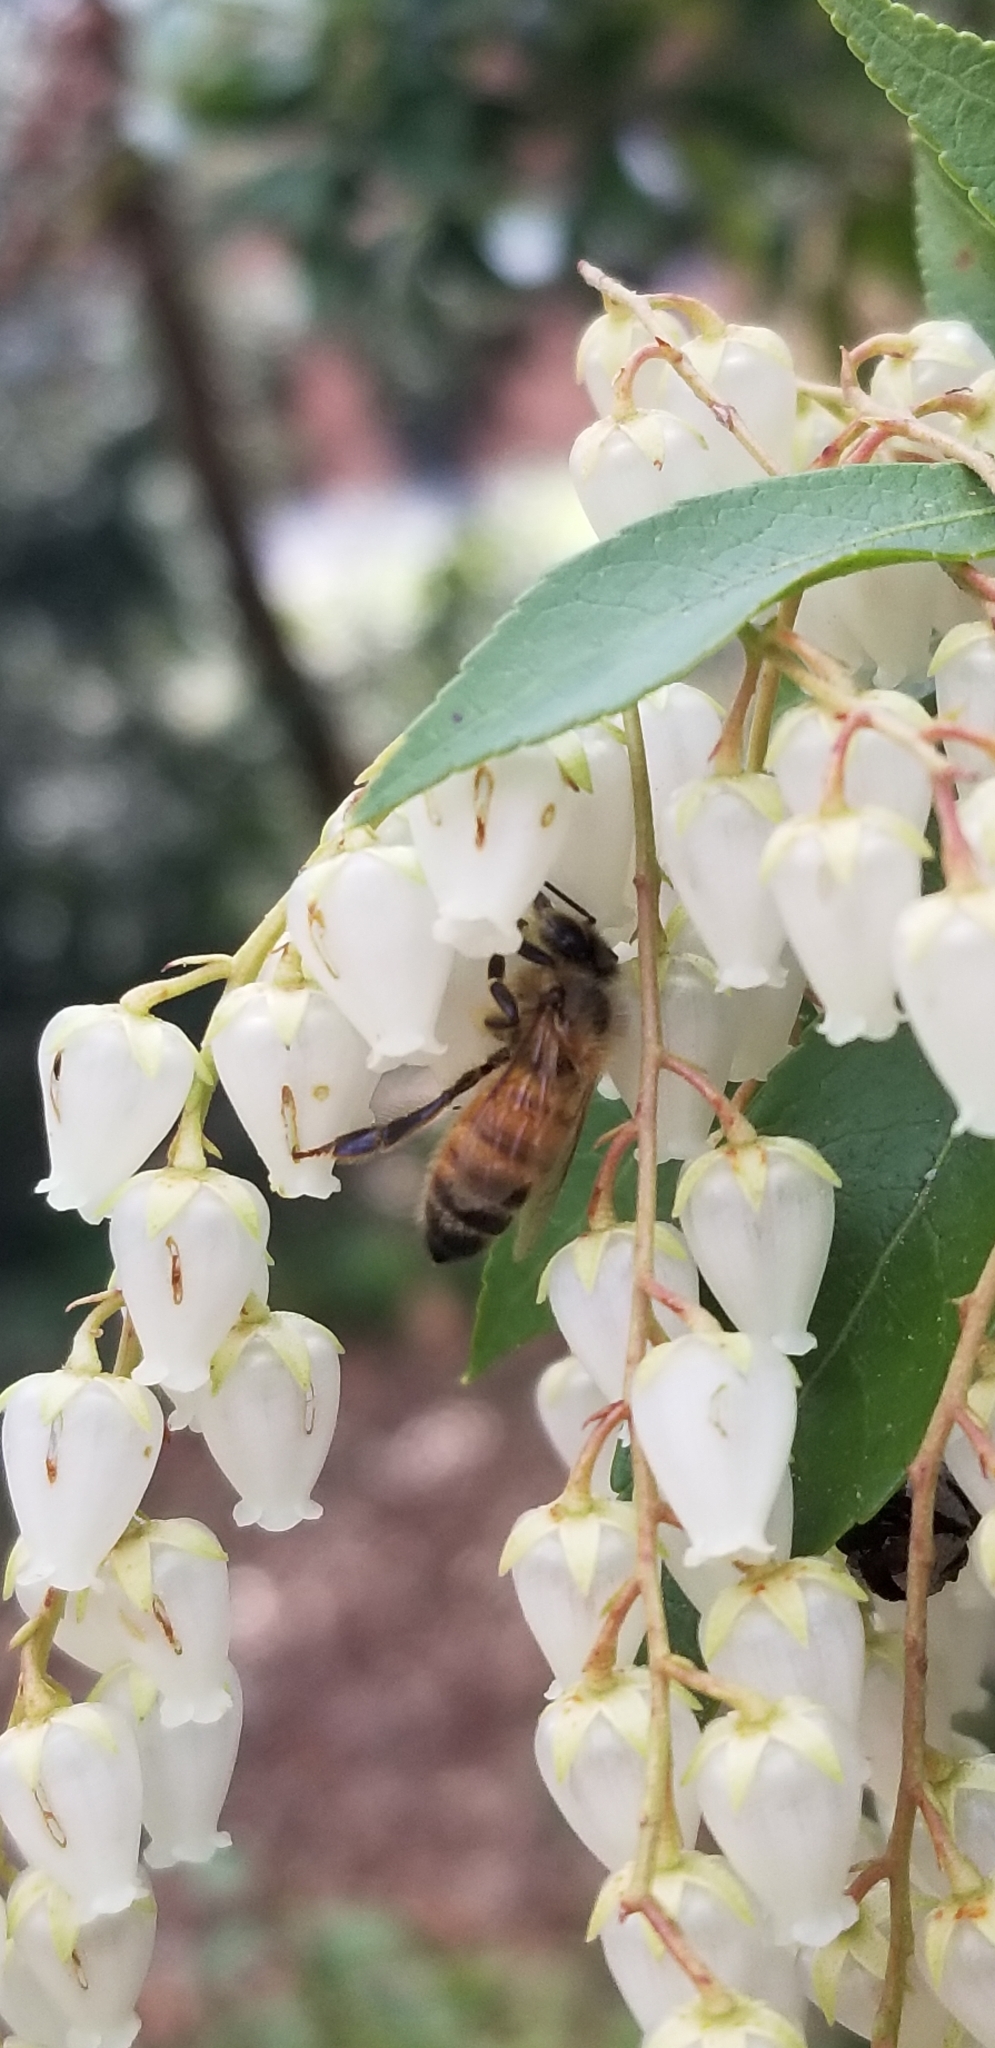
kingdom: Animalia
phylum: Arthropoda
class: Insecta
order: Hymenoptera
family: Apidae
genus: Apis
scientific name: Apis mellifera
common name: Honey bee
